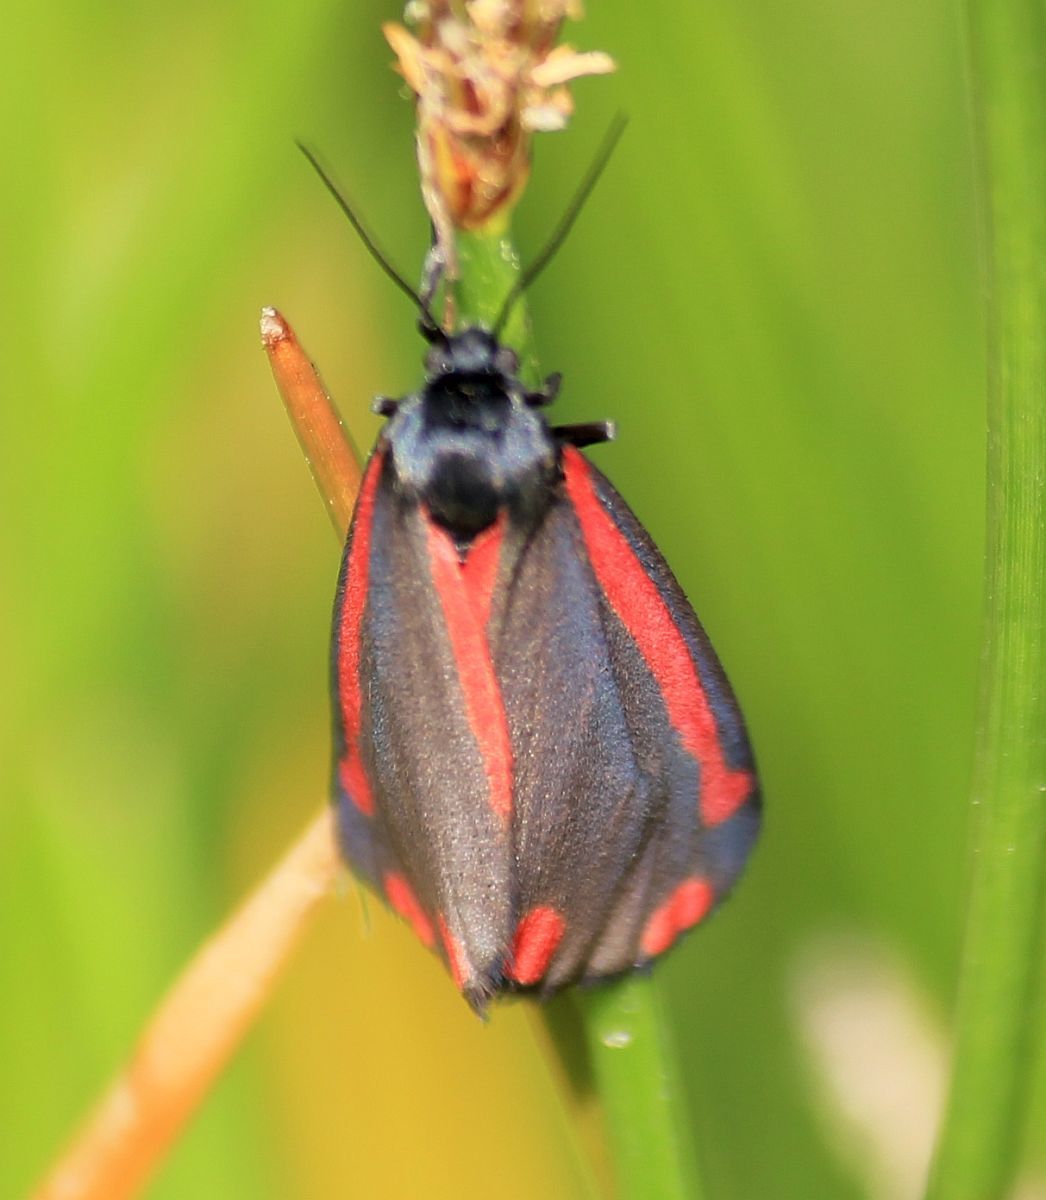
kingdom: Animalia
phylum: Arthropoda
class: Insecta
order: Lepidoptera
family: Erebidae
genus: Tyria
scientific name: Tyria jacobaeae
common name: Cinnabar
